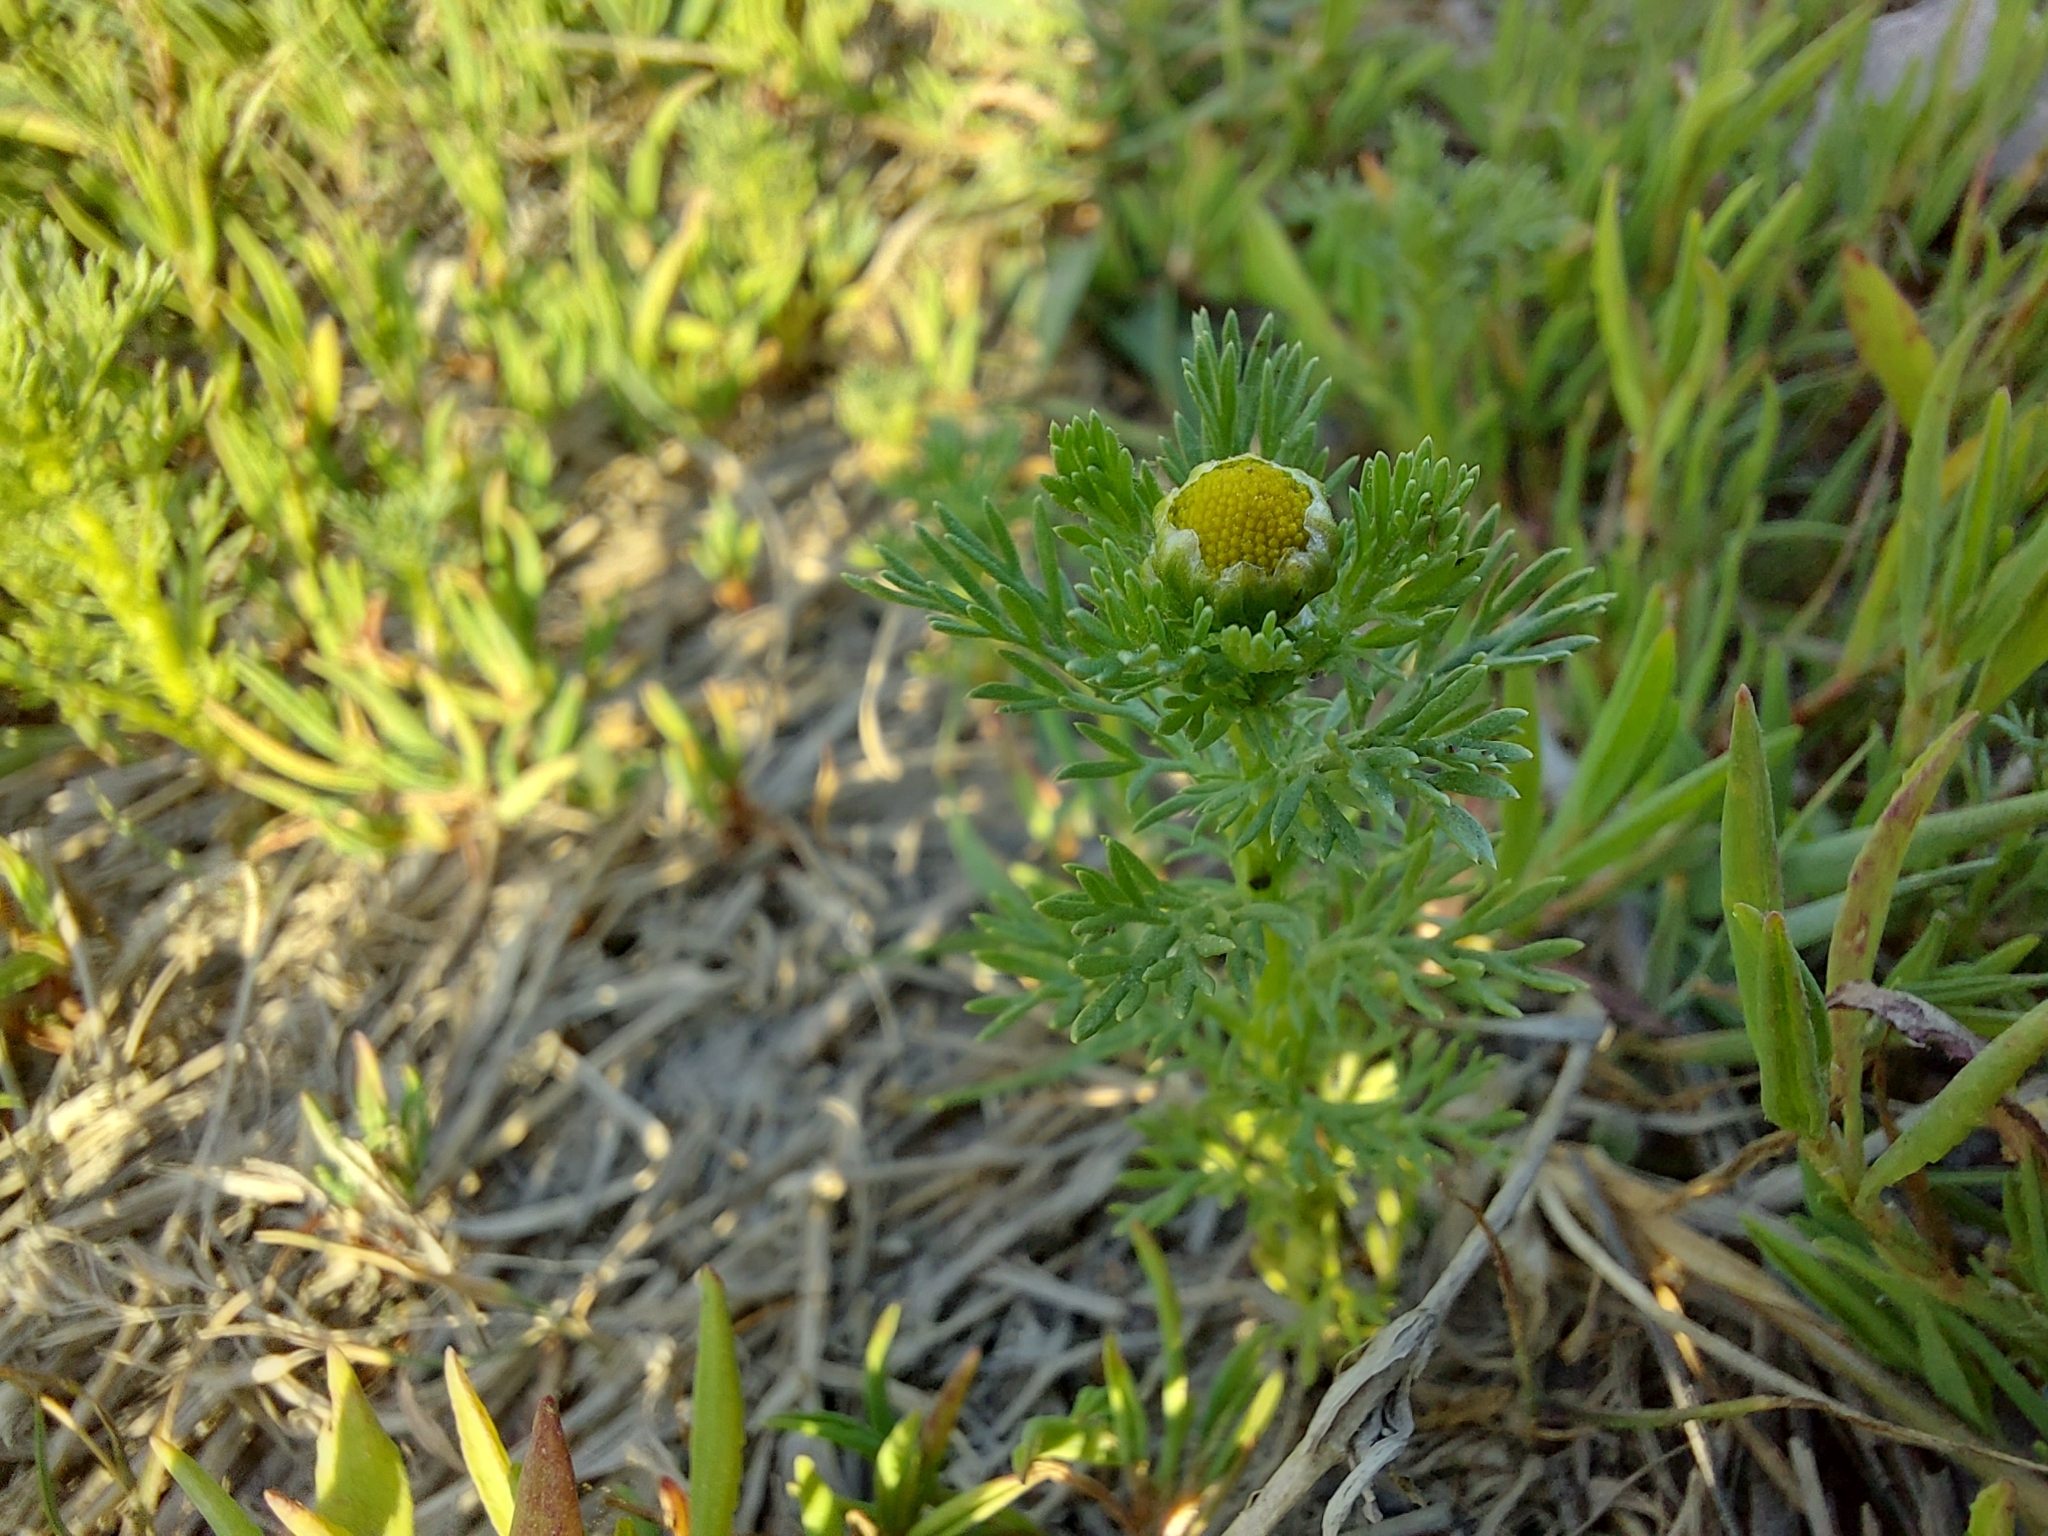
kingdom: Plantae
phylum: Tracheophyta
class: Magnoliopsida
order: Asterales
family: Asteraceae
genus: Matricaria
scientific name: Matricaria discoidea
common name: Disc mayweed
